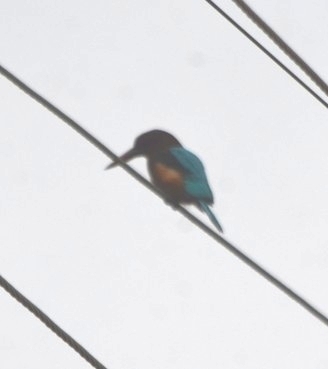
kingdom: Animalia
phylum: Chordata
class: Aves
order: Coraciiformes
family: Alcedinidae
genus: Alcedo
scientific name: Alcedo atthis
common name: Common kingfisher
